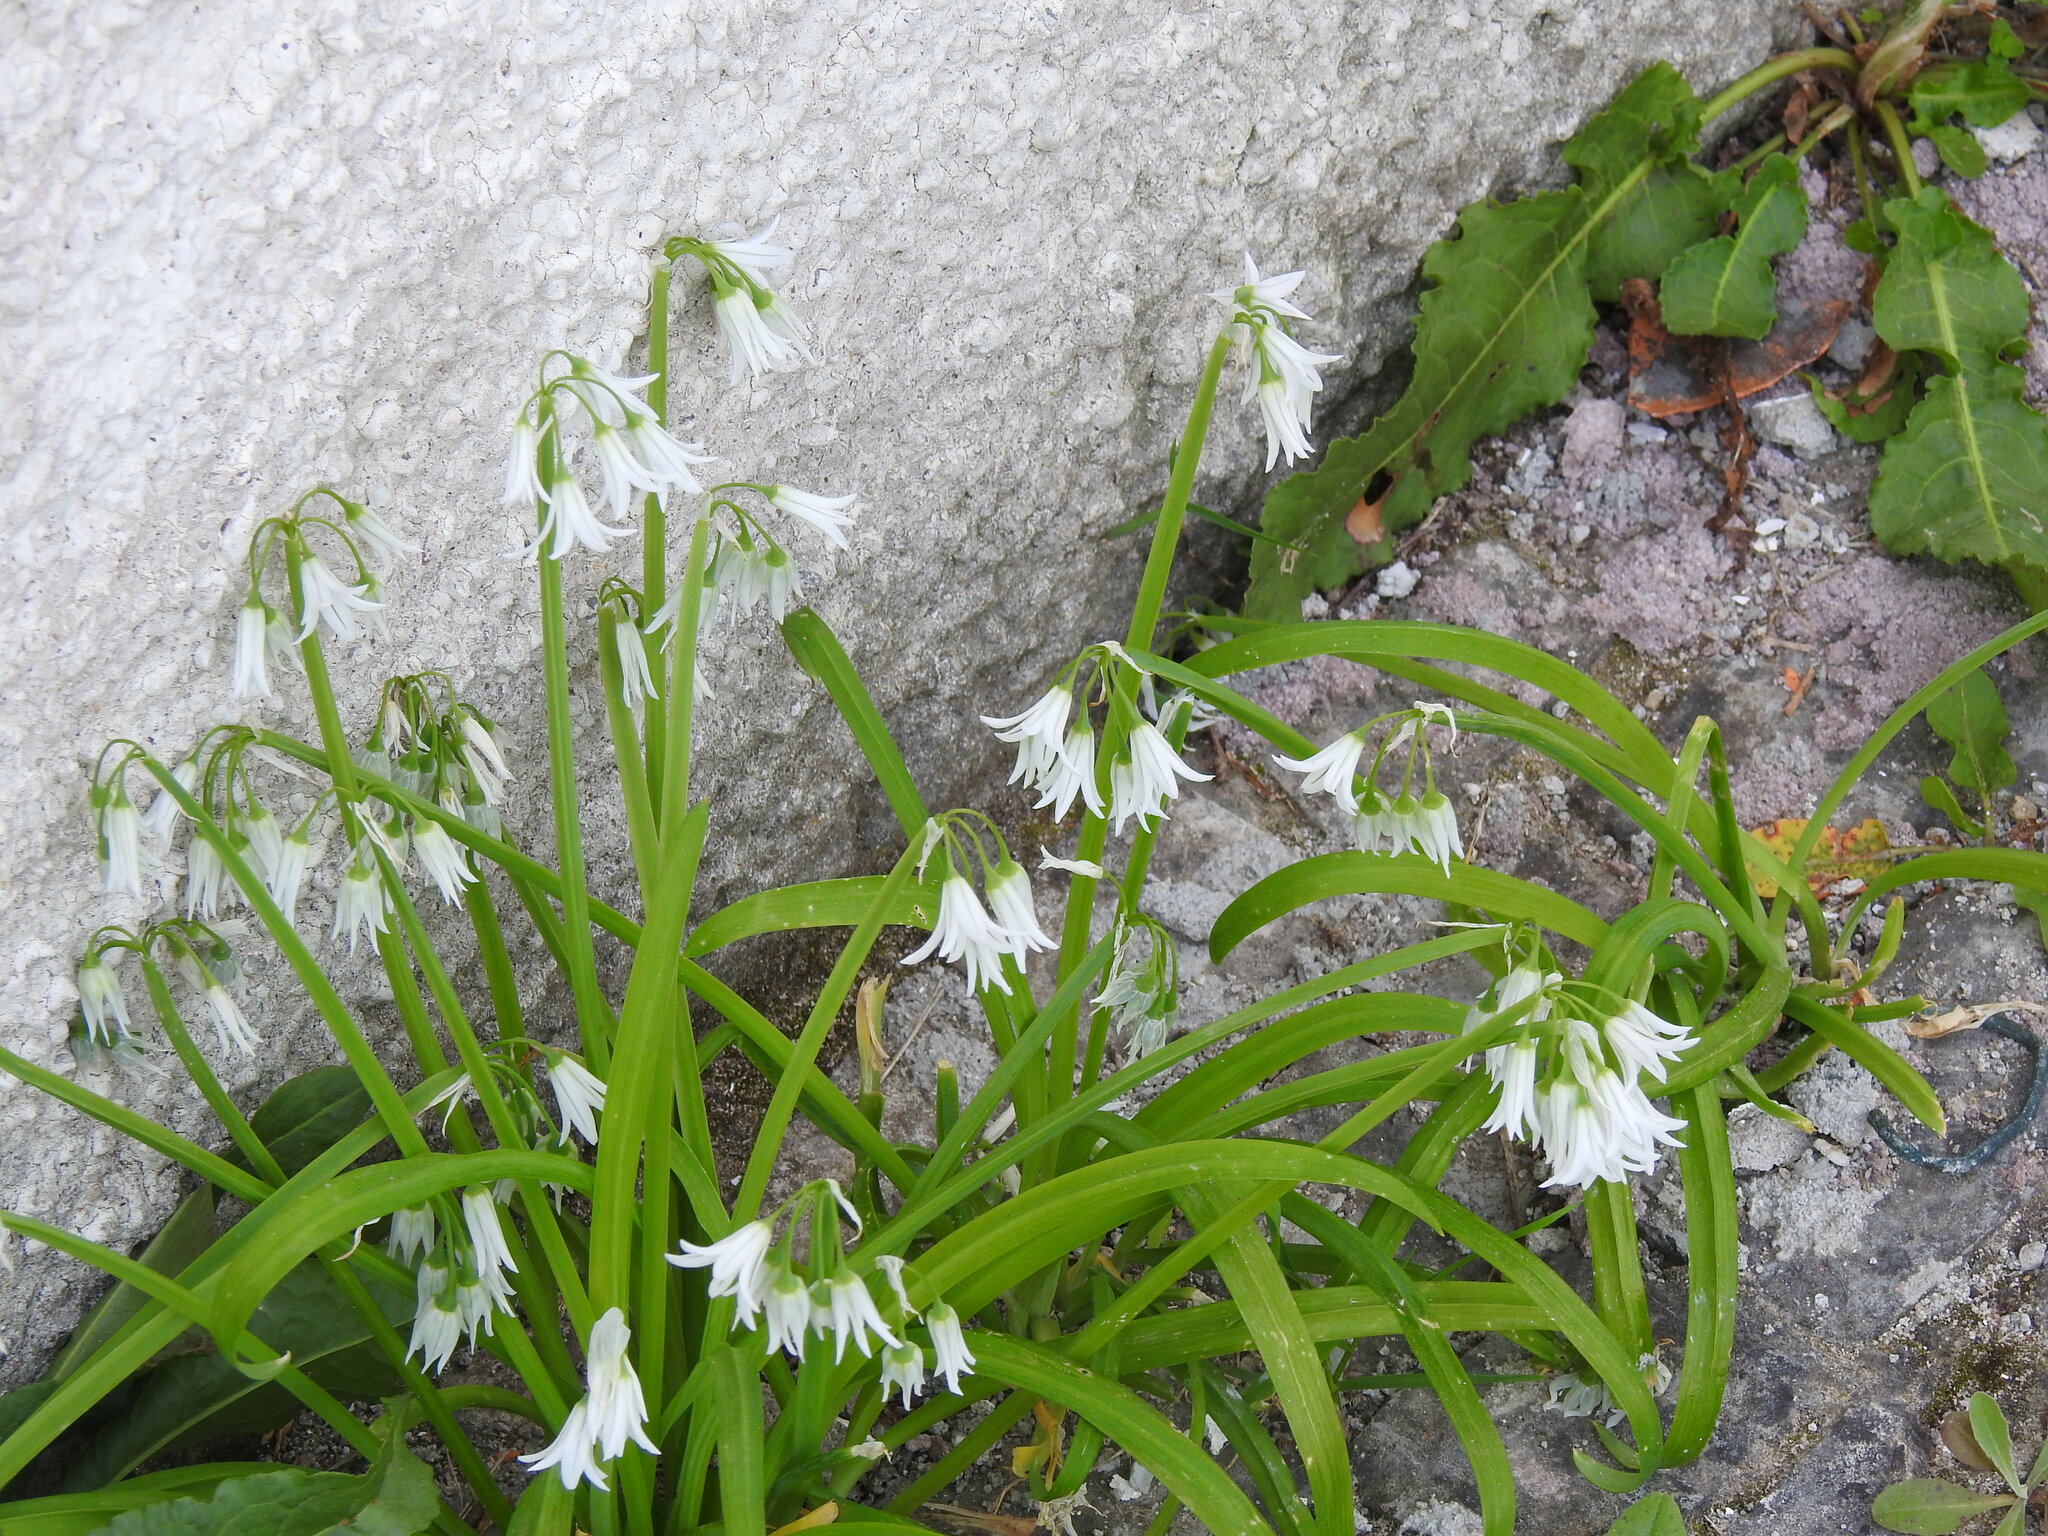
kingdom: Plantae
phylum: Tracheophyta
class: Liliopsida
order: Asparagales
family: Amaryllidaceae
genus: Allium
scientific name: Allium triquetrum
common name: Three-cornered garlic
